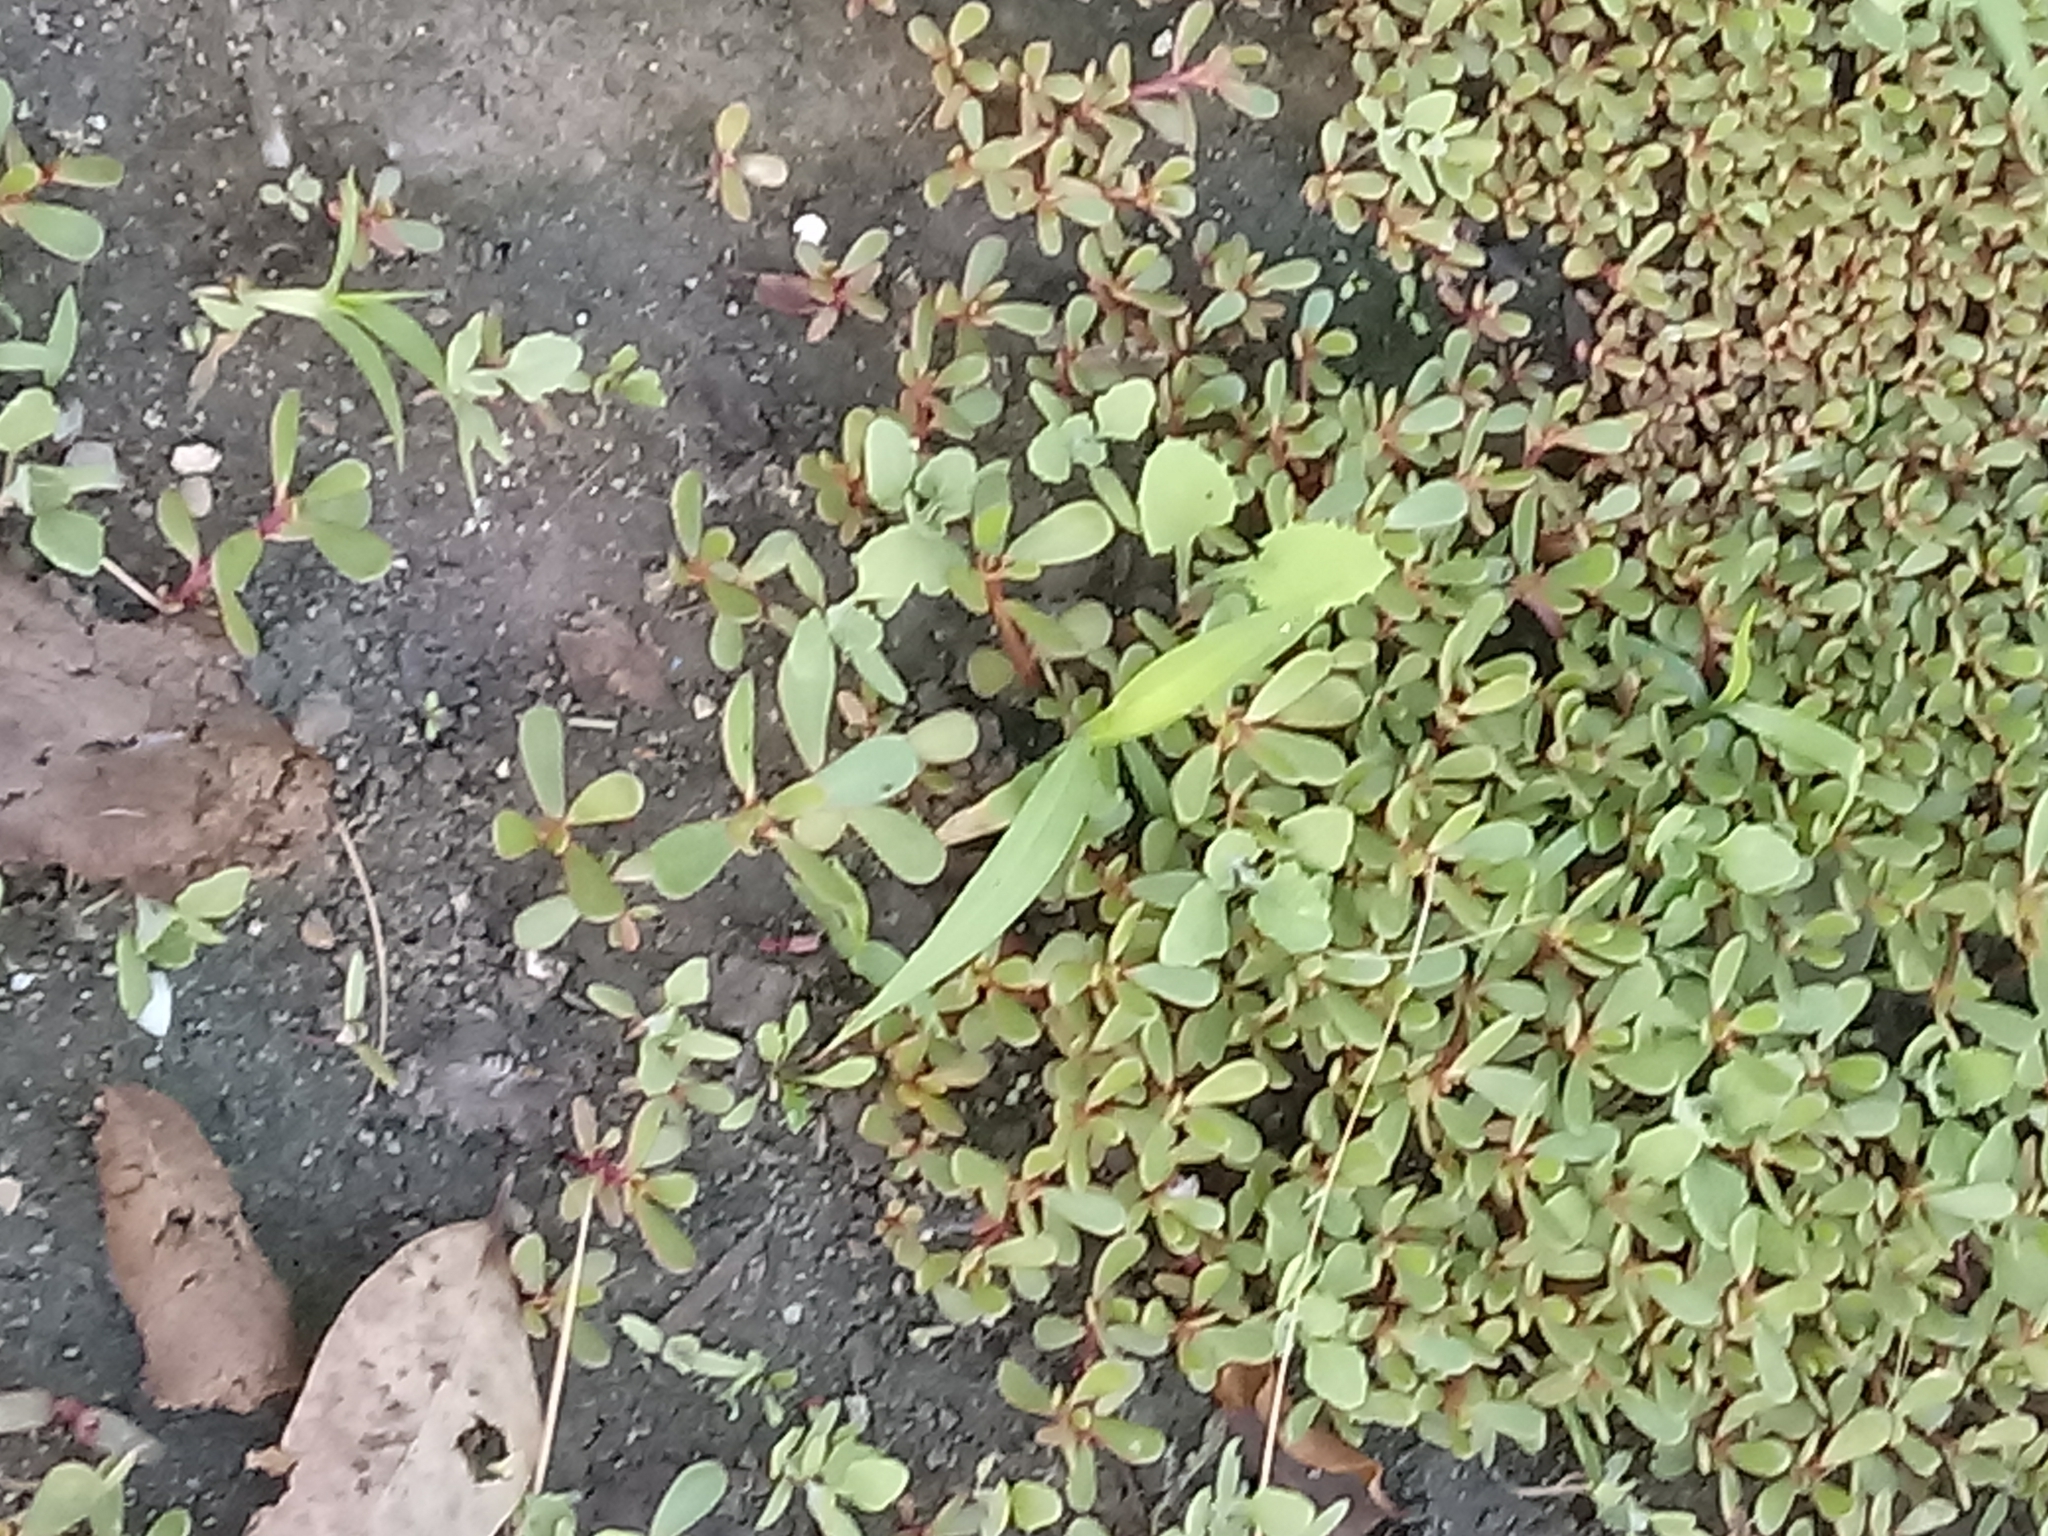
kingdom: Plantae
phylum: Tracheophyta
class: Magnoliopsida
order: Caryophyllales
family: Portulacaceae
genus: Portulaca
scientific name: Portulaca oleracea
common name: Common purslane
